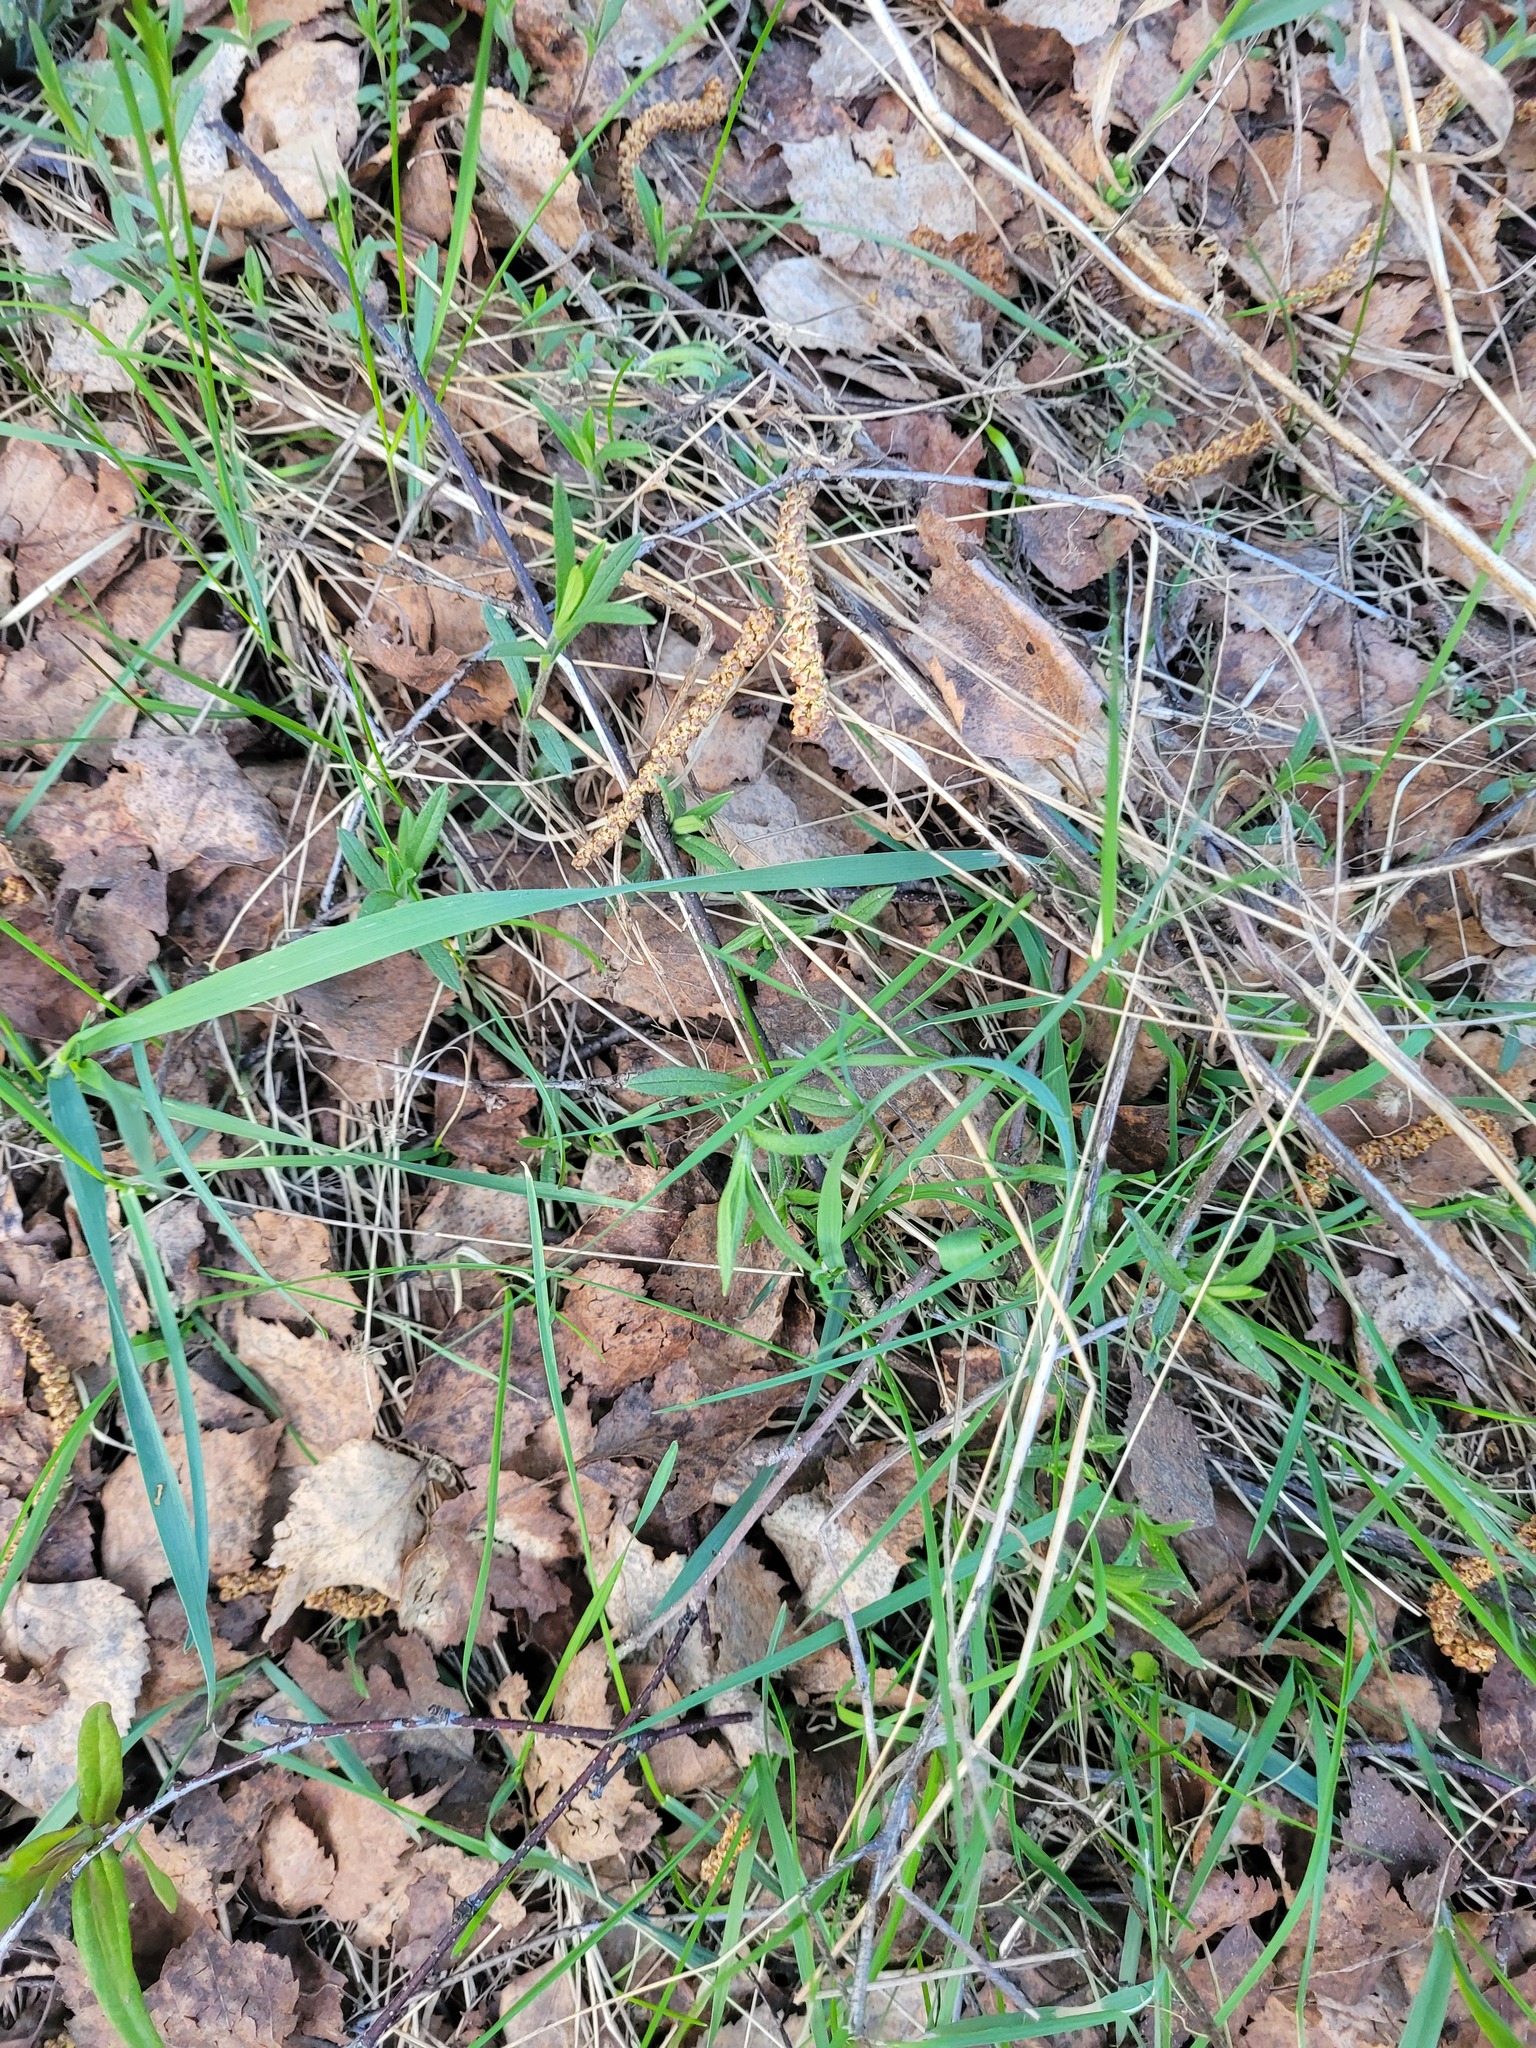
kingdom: Plantae
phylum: Tracheophyta
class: Magnoliopsida
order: Caryophyllales
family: Caryophyllaceae
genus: Cerastium
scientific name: Cerastium arvense
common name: Field mouse-ear
